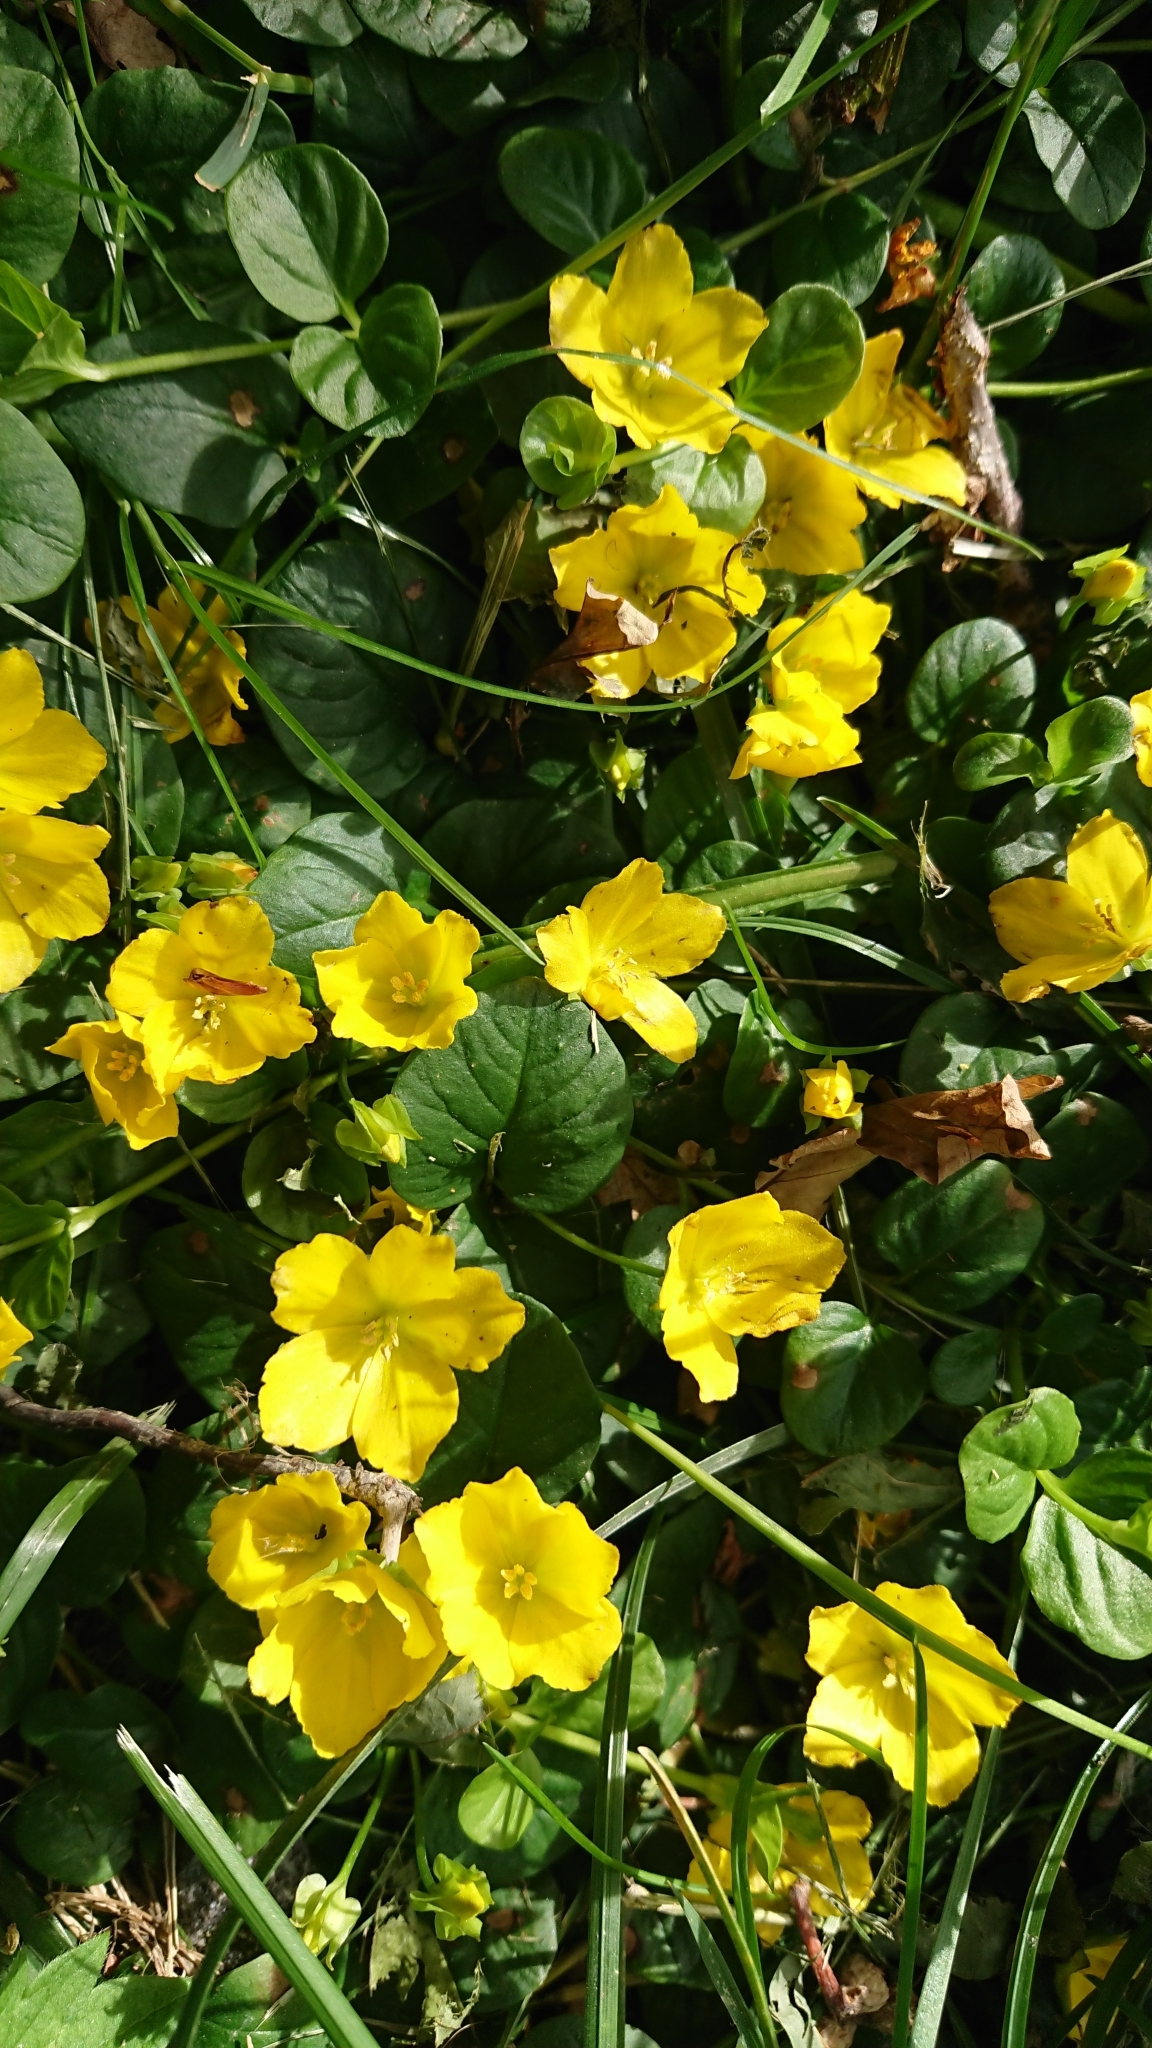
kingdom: Plantae
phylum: Tracheophyta
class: Magnoliopsida
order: Ericales
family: Primulaceae
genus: Lysimachia
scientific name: Lysimachia nummularia
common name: Moneywort
